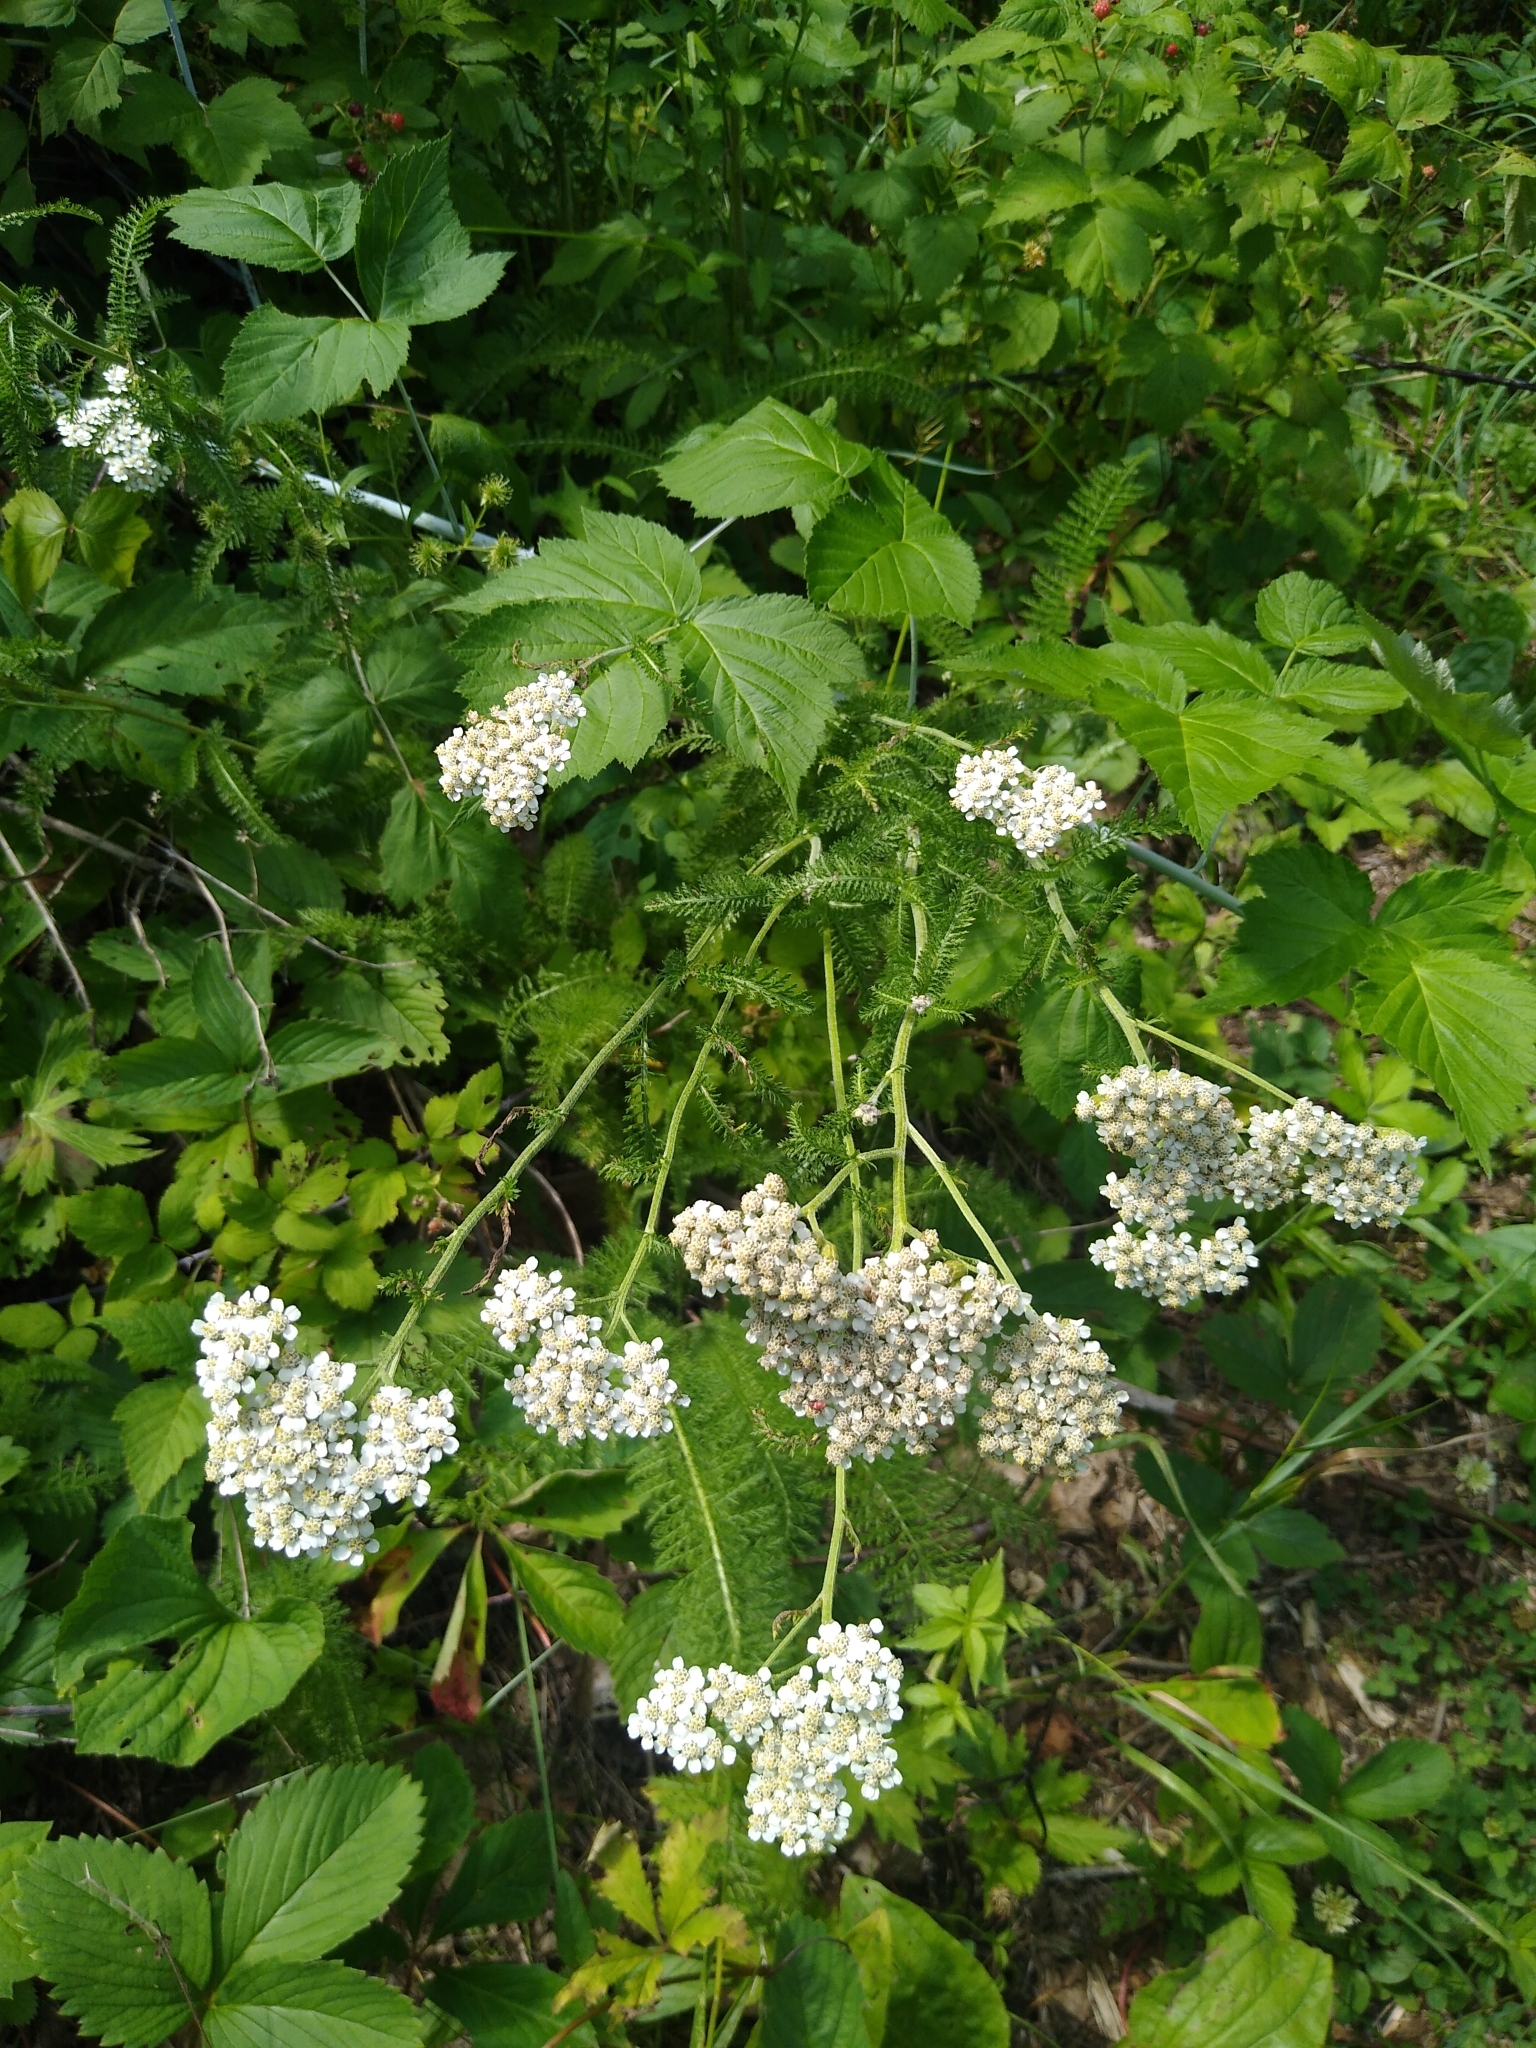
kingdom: Plantae
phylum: Tracheophyta
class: Magnoliopsida
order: Asterales
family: Asteraceae
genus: Achillea
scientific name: Achillea millefolium
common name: Yarrow
